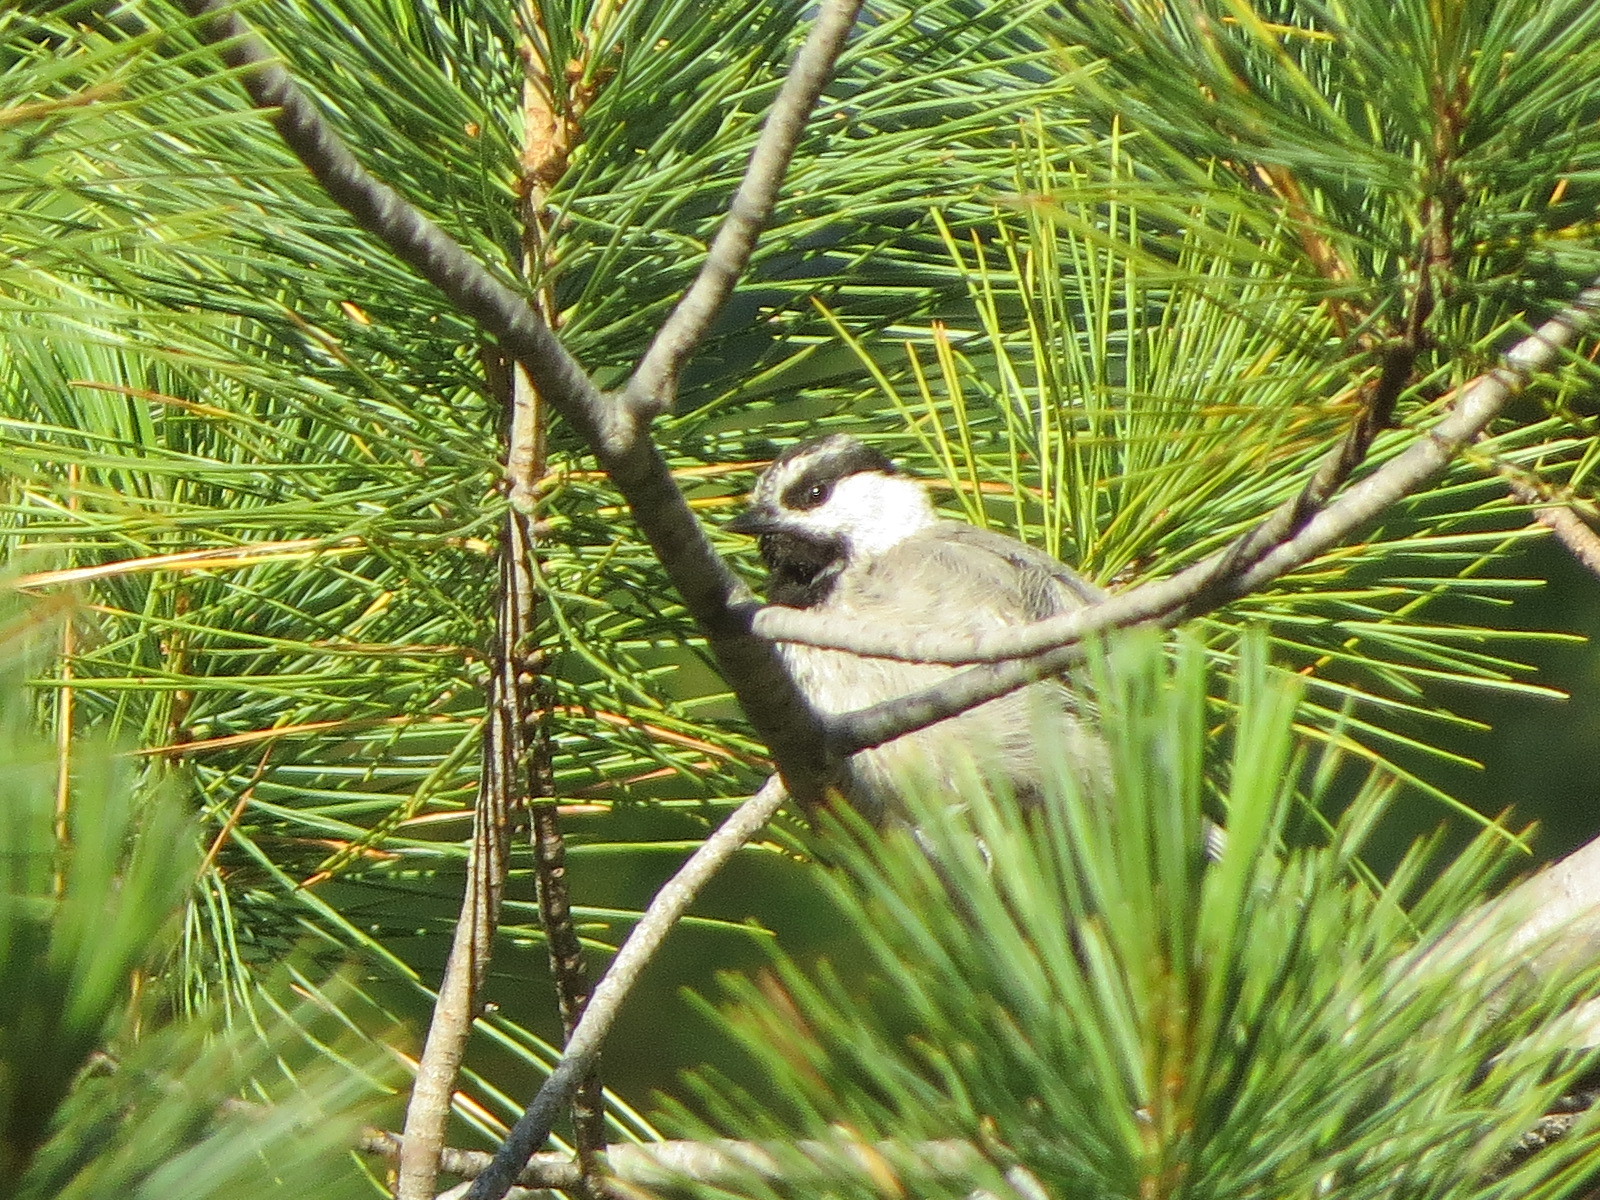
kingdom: Animalia
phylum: Chordata
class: Aves
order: Passeriformes
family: Paridae
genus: Poecile
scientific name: Poecile gambeli
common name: Mountain chickadee
